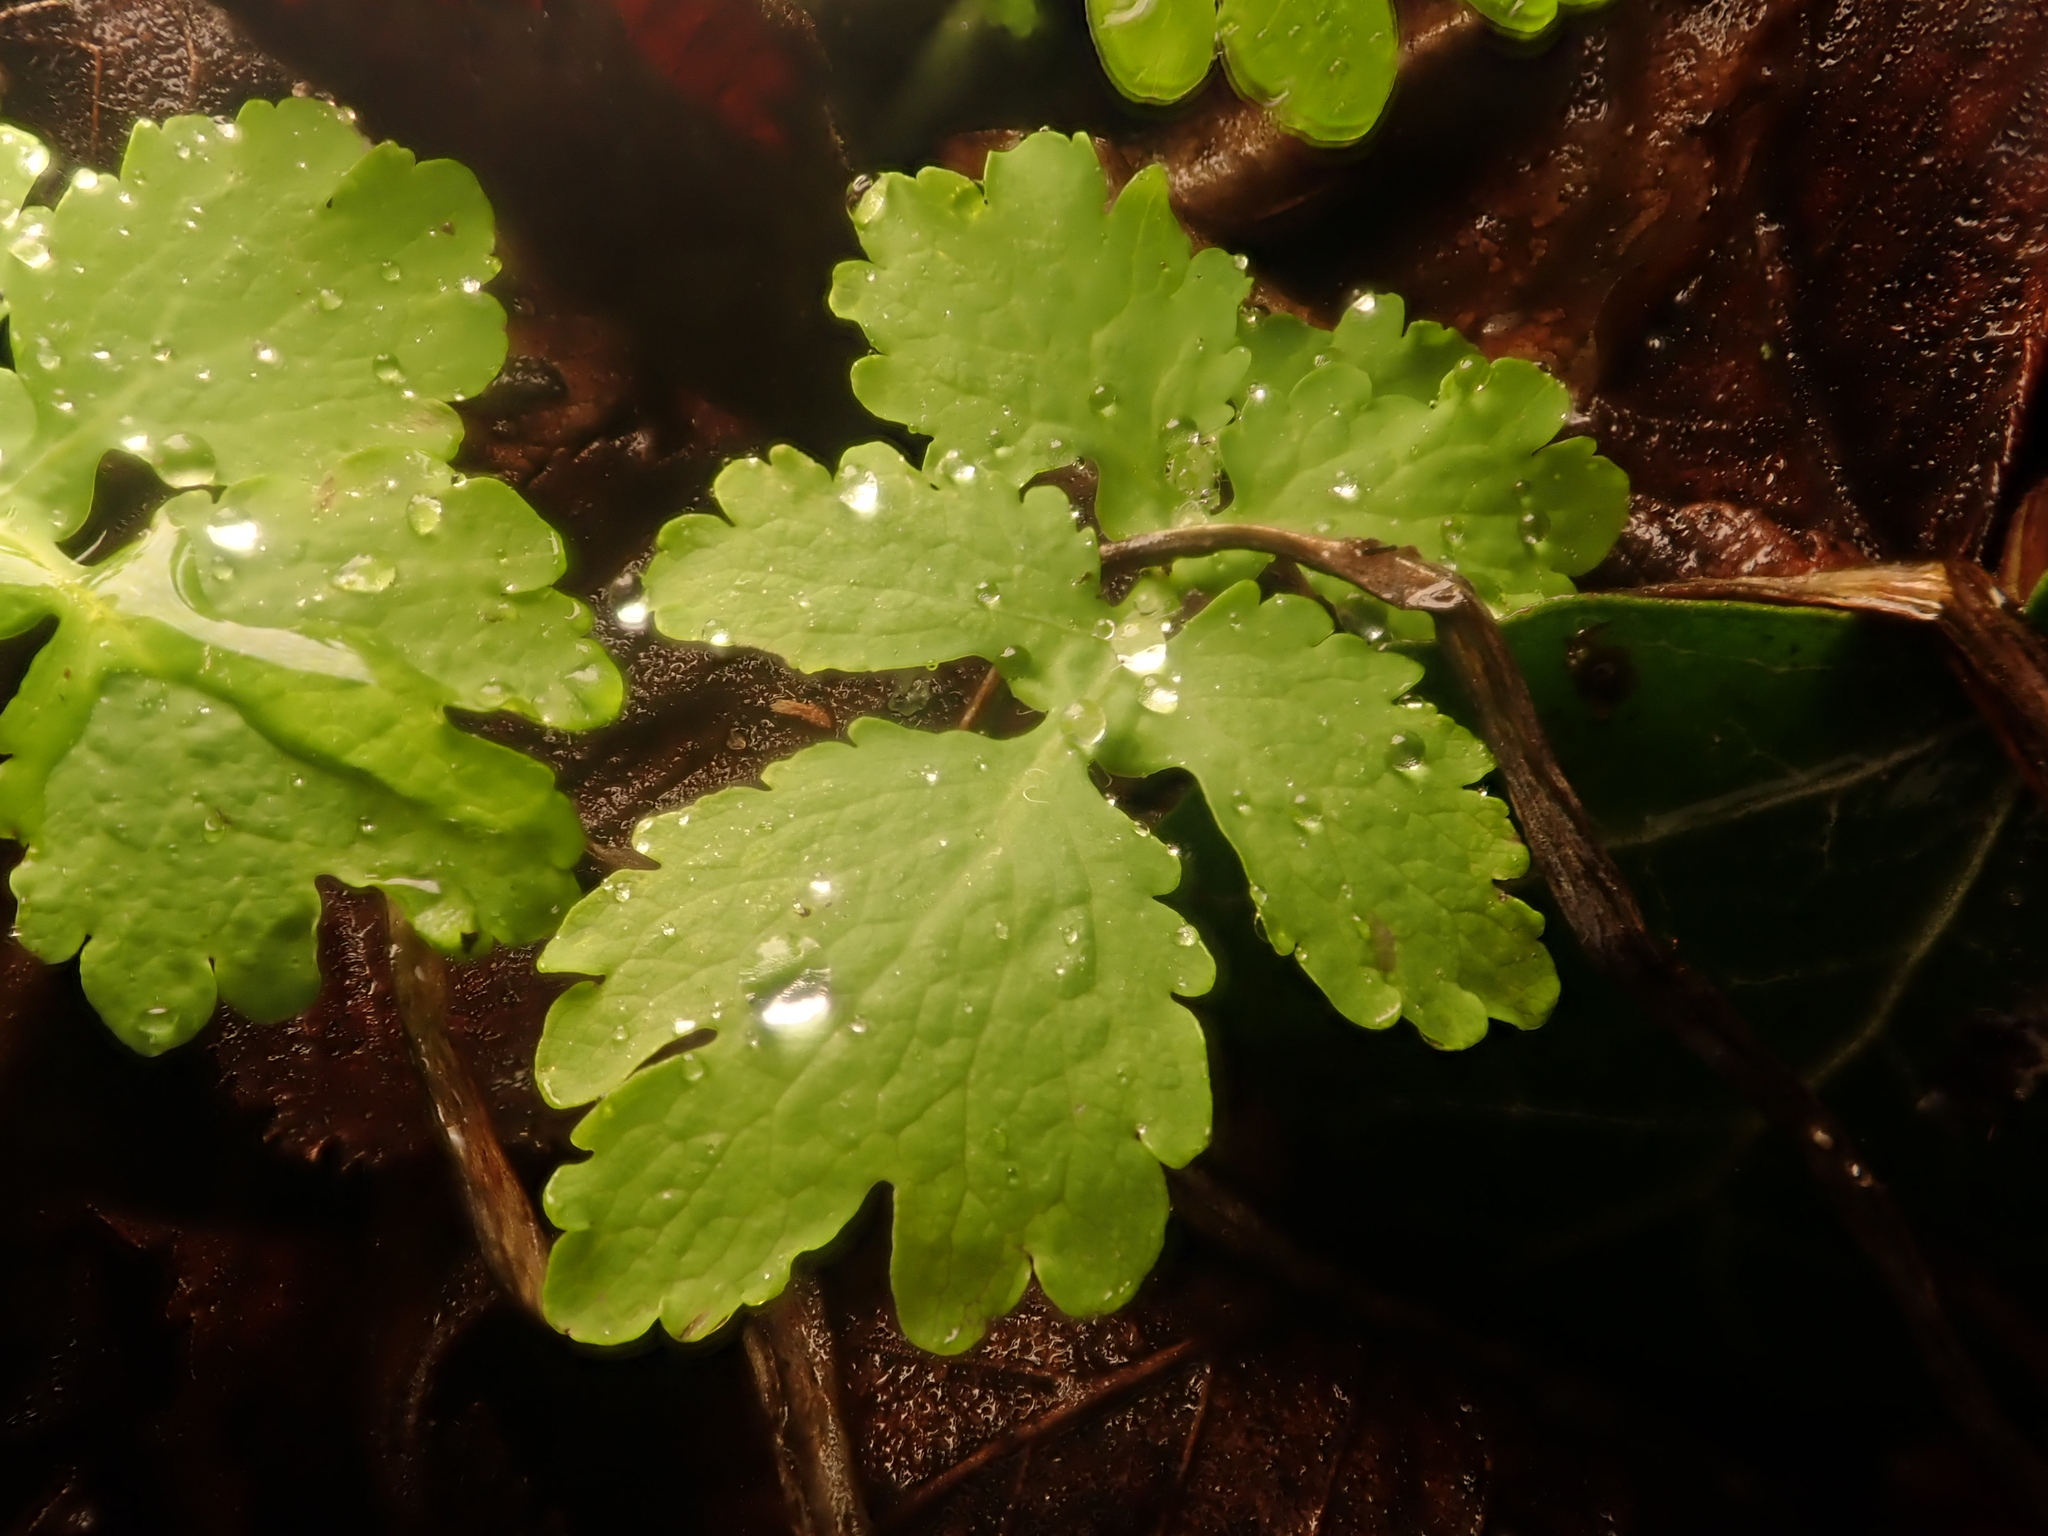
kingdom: Plantae
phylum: Tracheophyta
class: Magnoliopsida
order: Ranunculales
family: Papaveraceae
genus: Chelidonium
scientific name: Chelidonium majus
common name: Greater celandine
